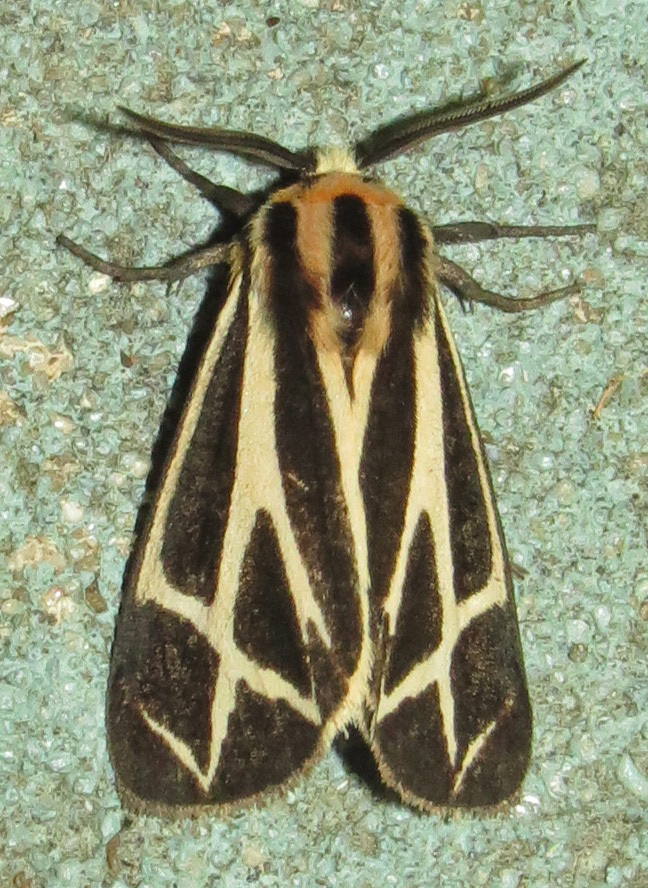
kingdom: Animalia
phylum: Arthropoda
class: Insecta
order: Lepidoptera
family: Erebidae
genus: Apantesis
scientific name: Apantesis phalerata
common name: Harnessed tiger moth
